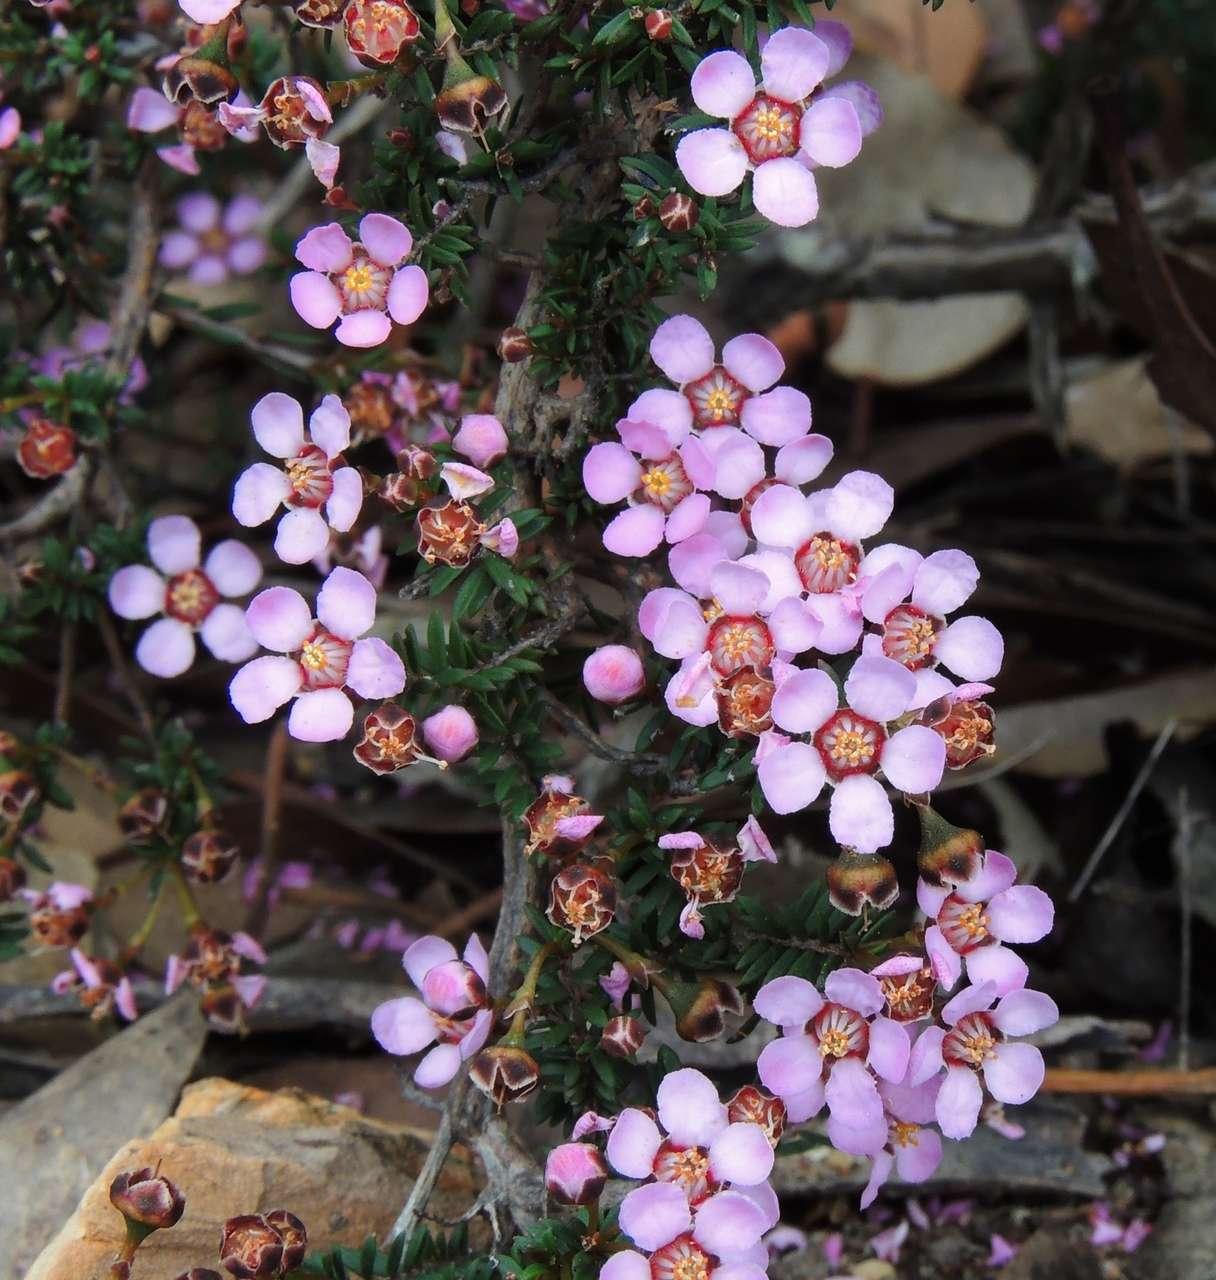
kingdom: Plantae
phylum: Tracheophyta
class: Magnoliopsida
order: Myrtales
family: Myrtaceae
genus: Euryomyrtus
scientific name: Euryomyrtus ramosissima
